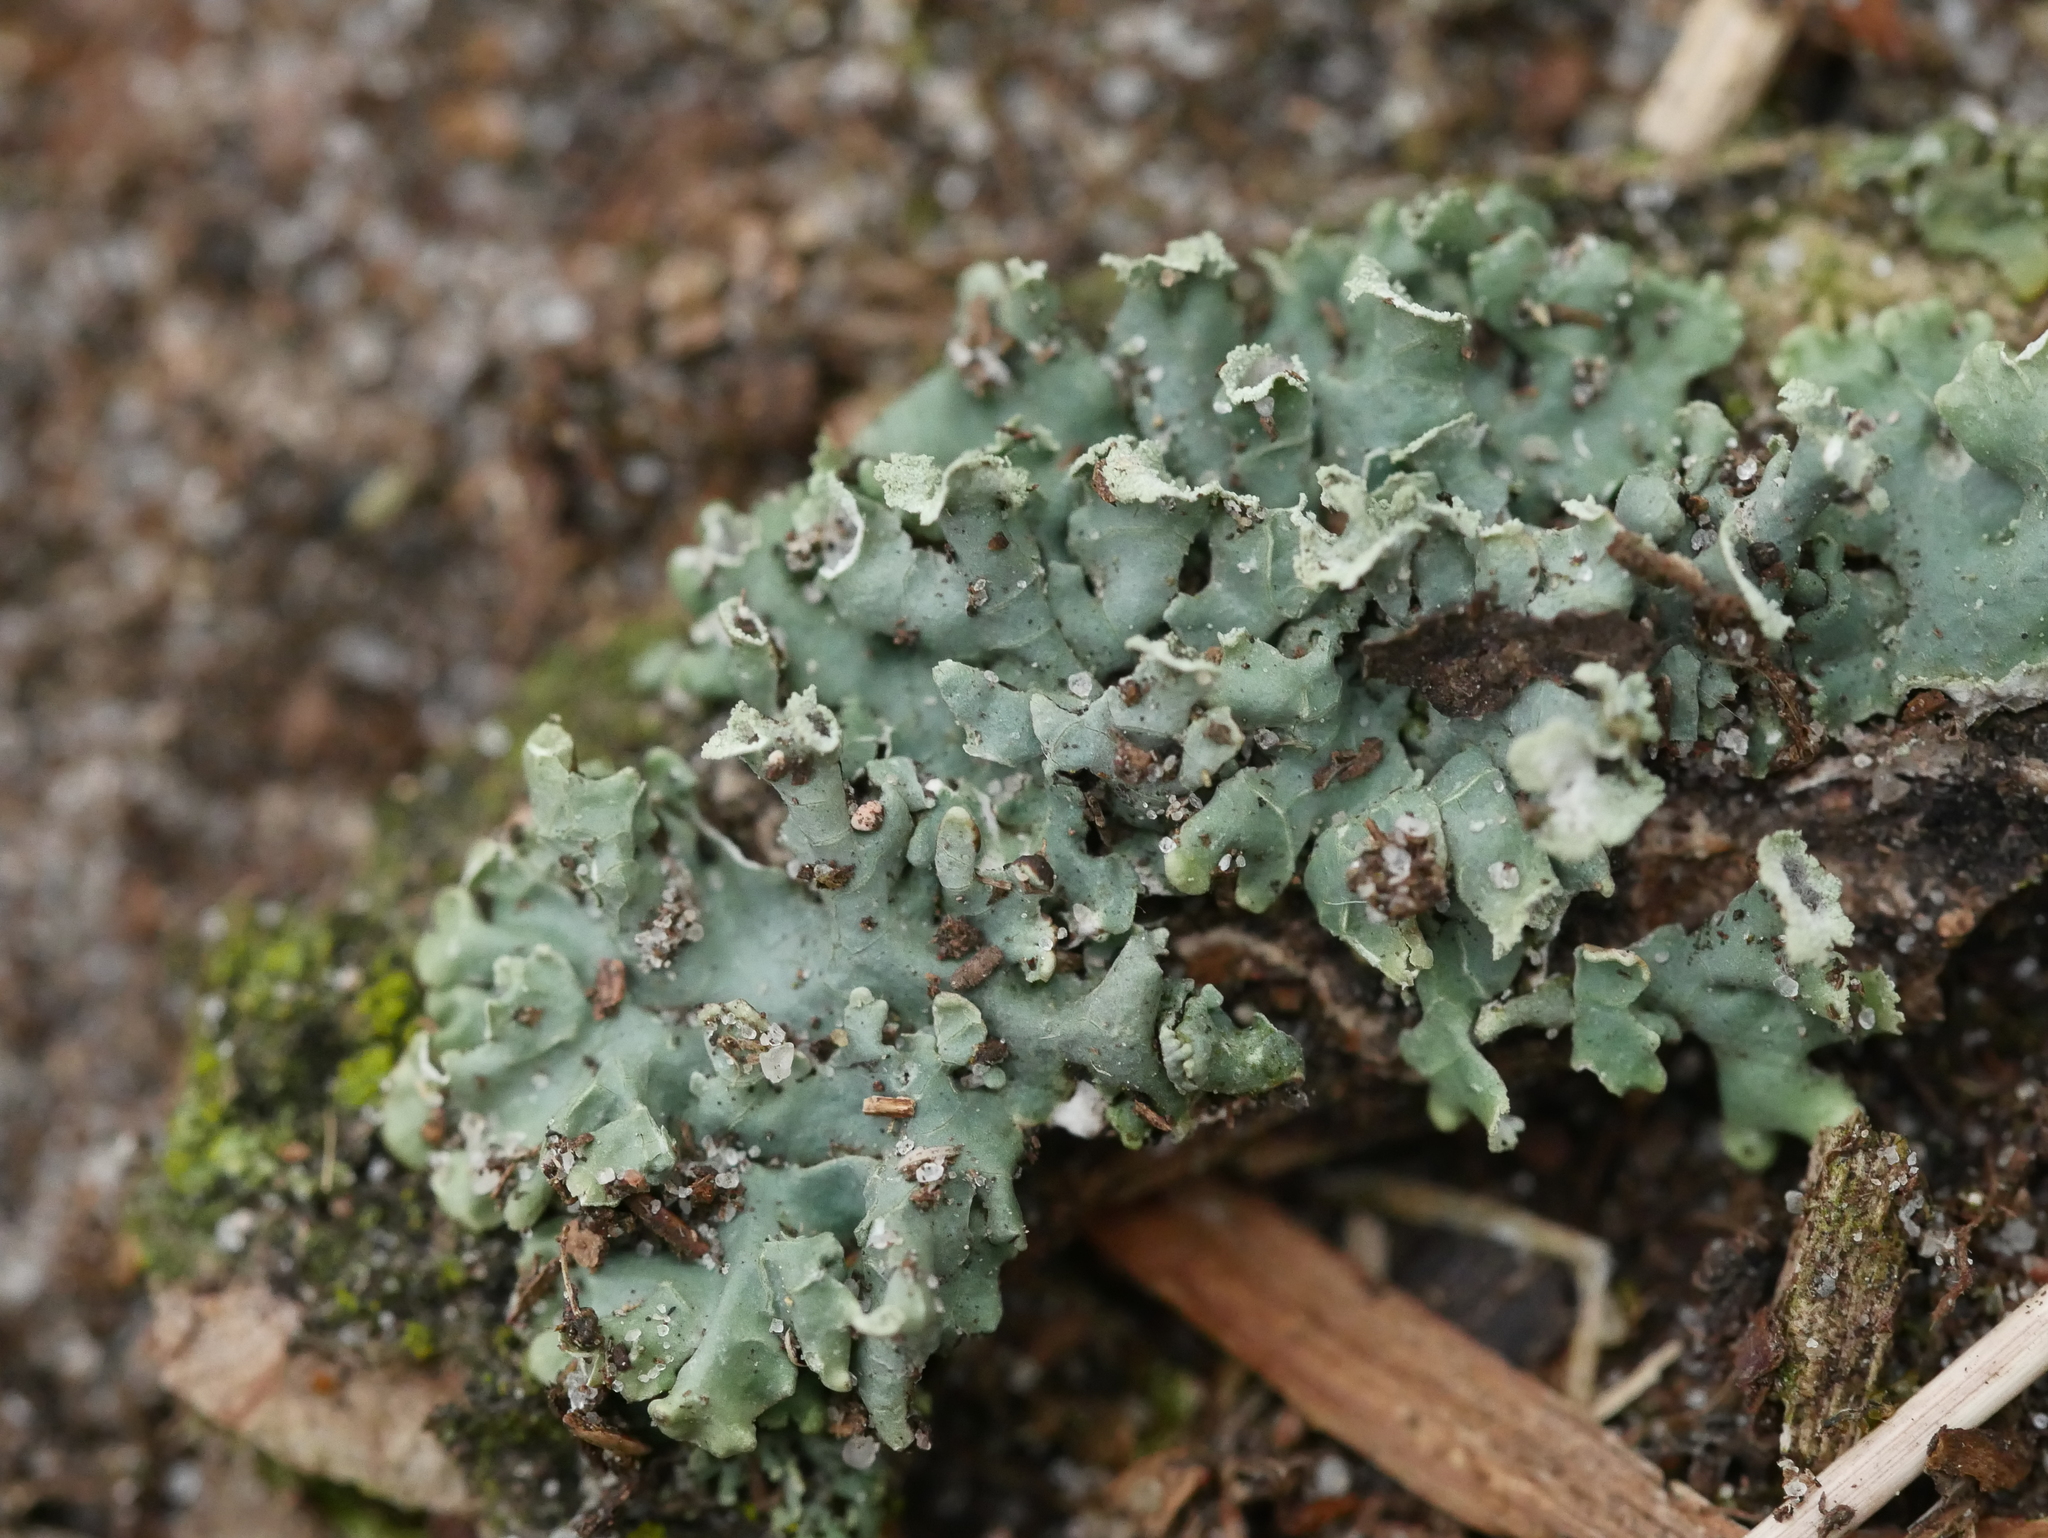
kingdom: Fungi
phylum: Ascomycota
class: Lecanoromycetes
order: Lecanorales
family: Parmeliaceae
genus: Hypogymnia
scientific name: Hypogymnia physodes
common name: Dark crottle
